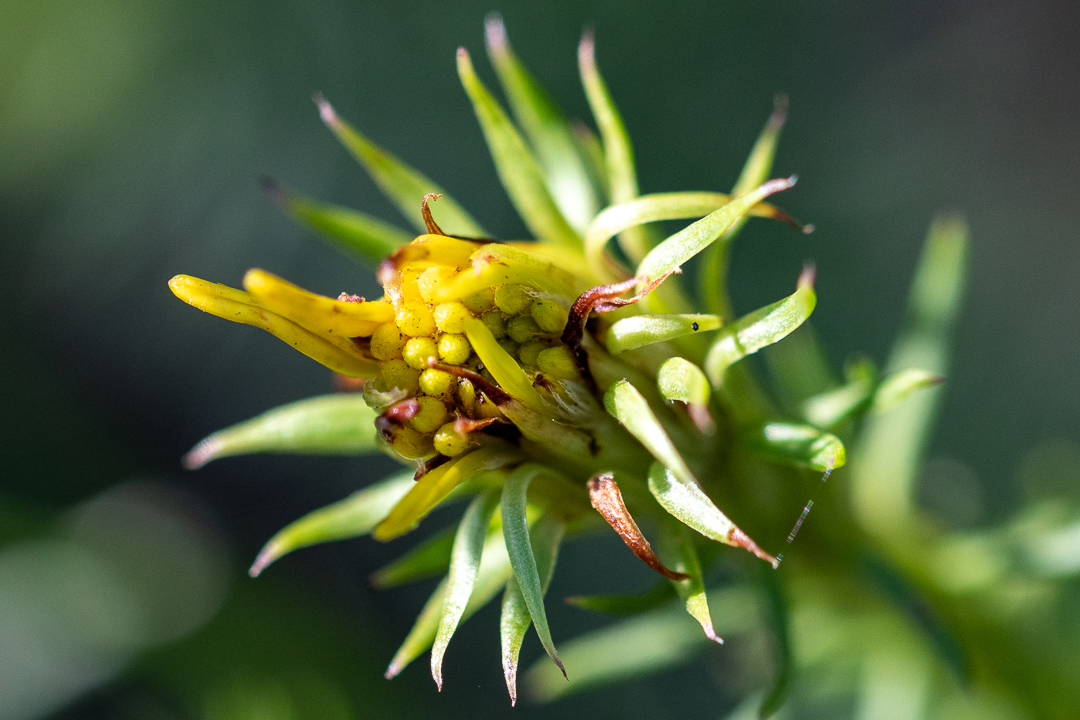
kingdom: Plantae
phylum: Tracheophyta
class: Magnoliopsida
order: Asterales
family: Asteraceae
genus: Senecio
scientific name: Senecio pinifolius
